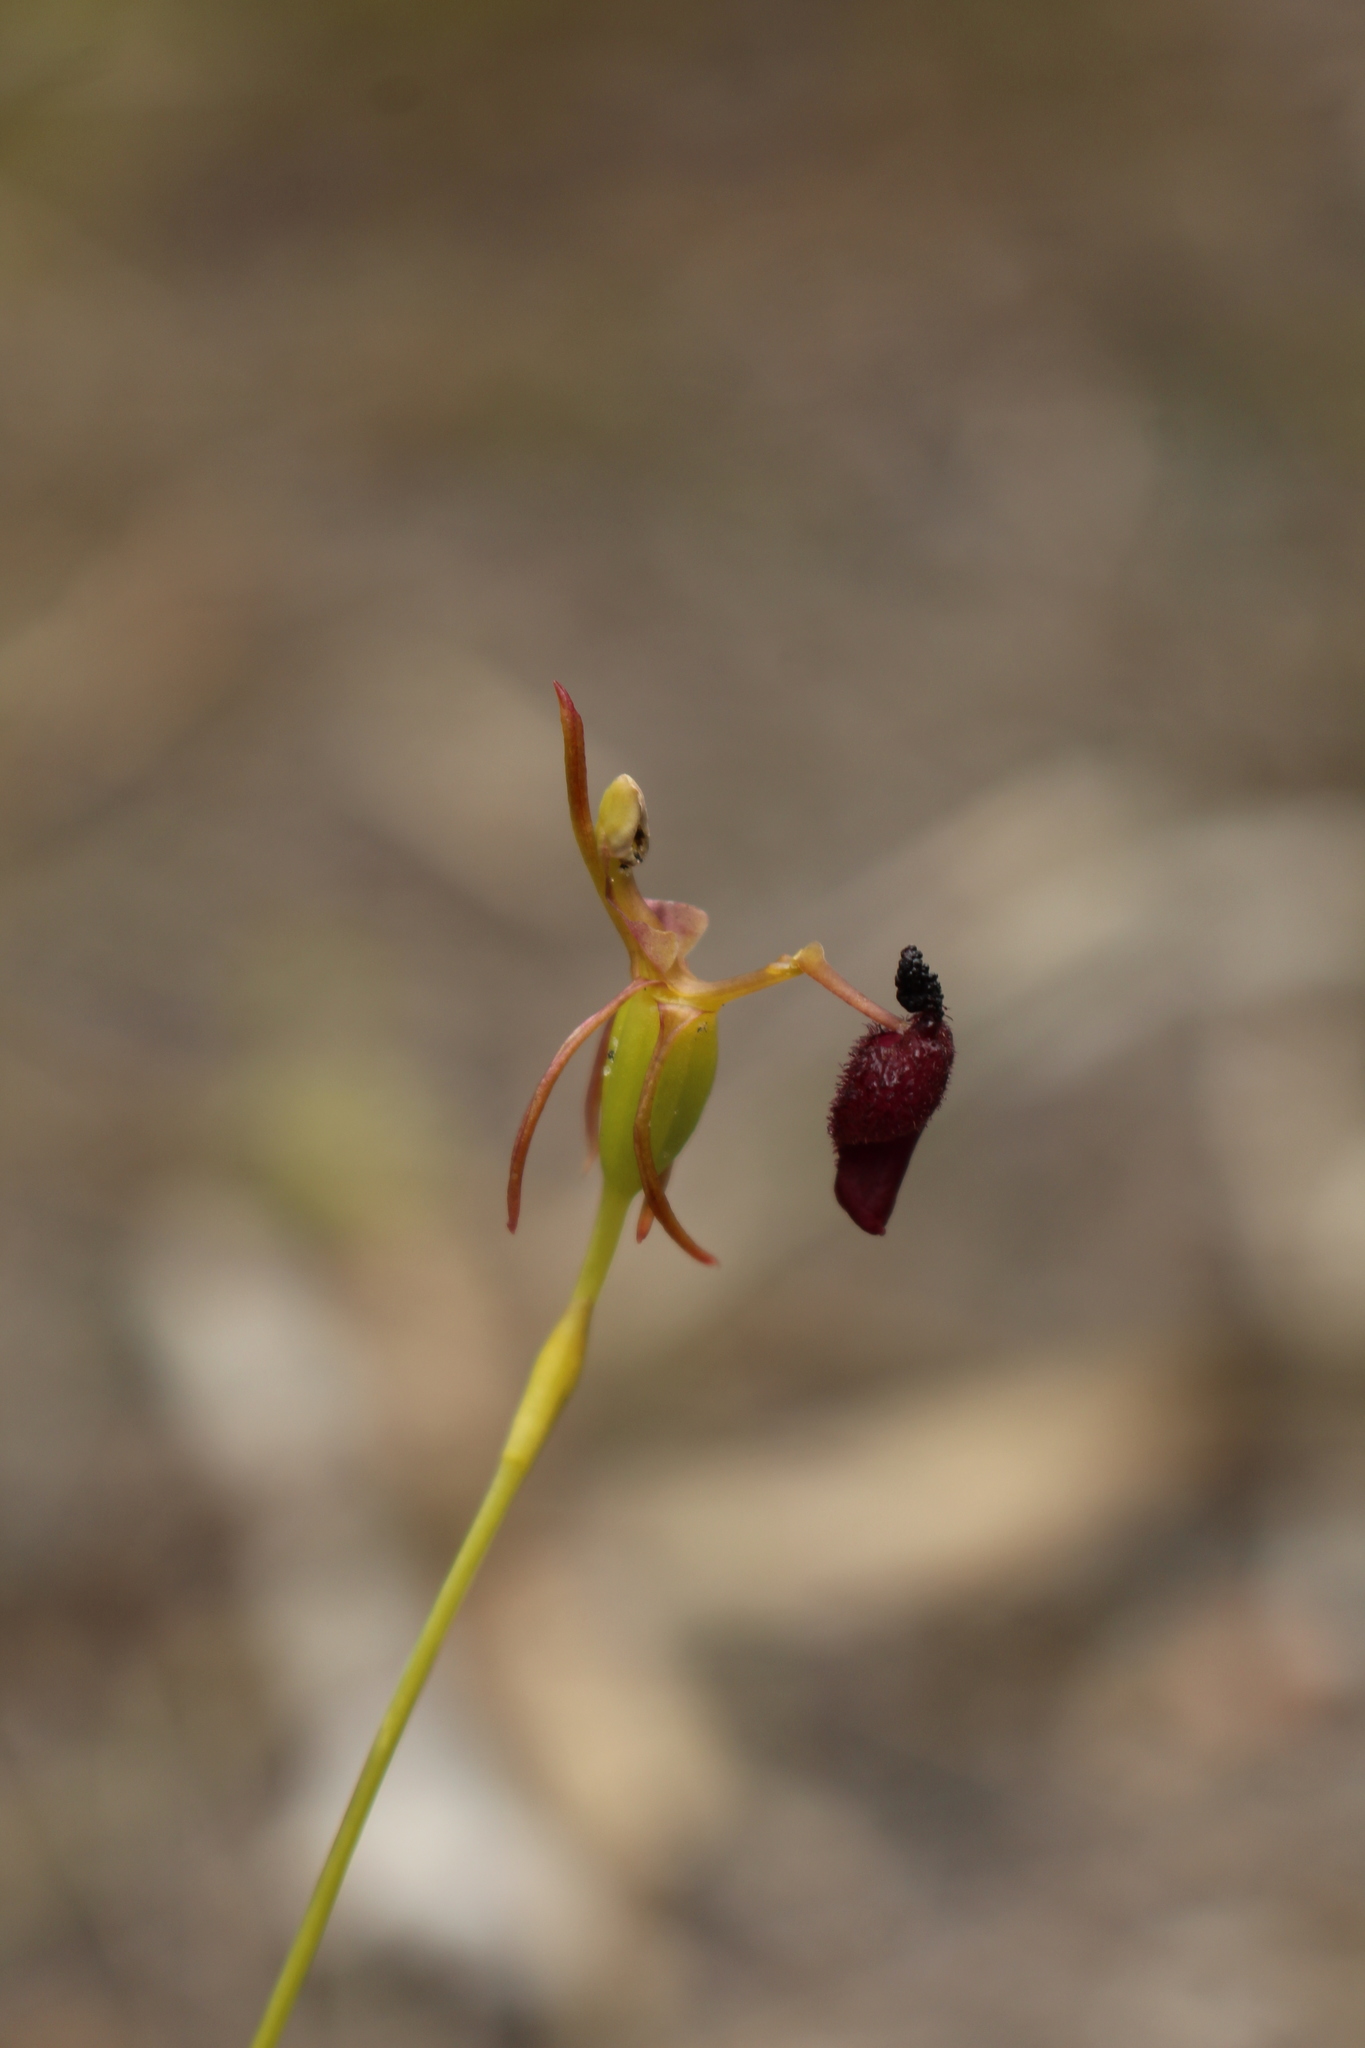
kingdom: Plantae
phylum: Tracheophyta
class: Liliopsida
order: Asparagales
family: Orchidaceae
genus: Drakaea
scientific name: Drakaea glyptodon
